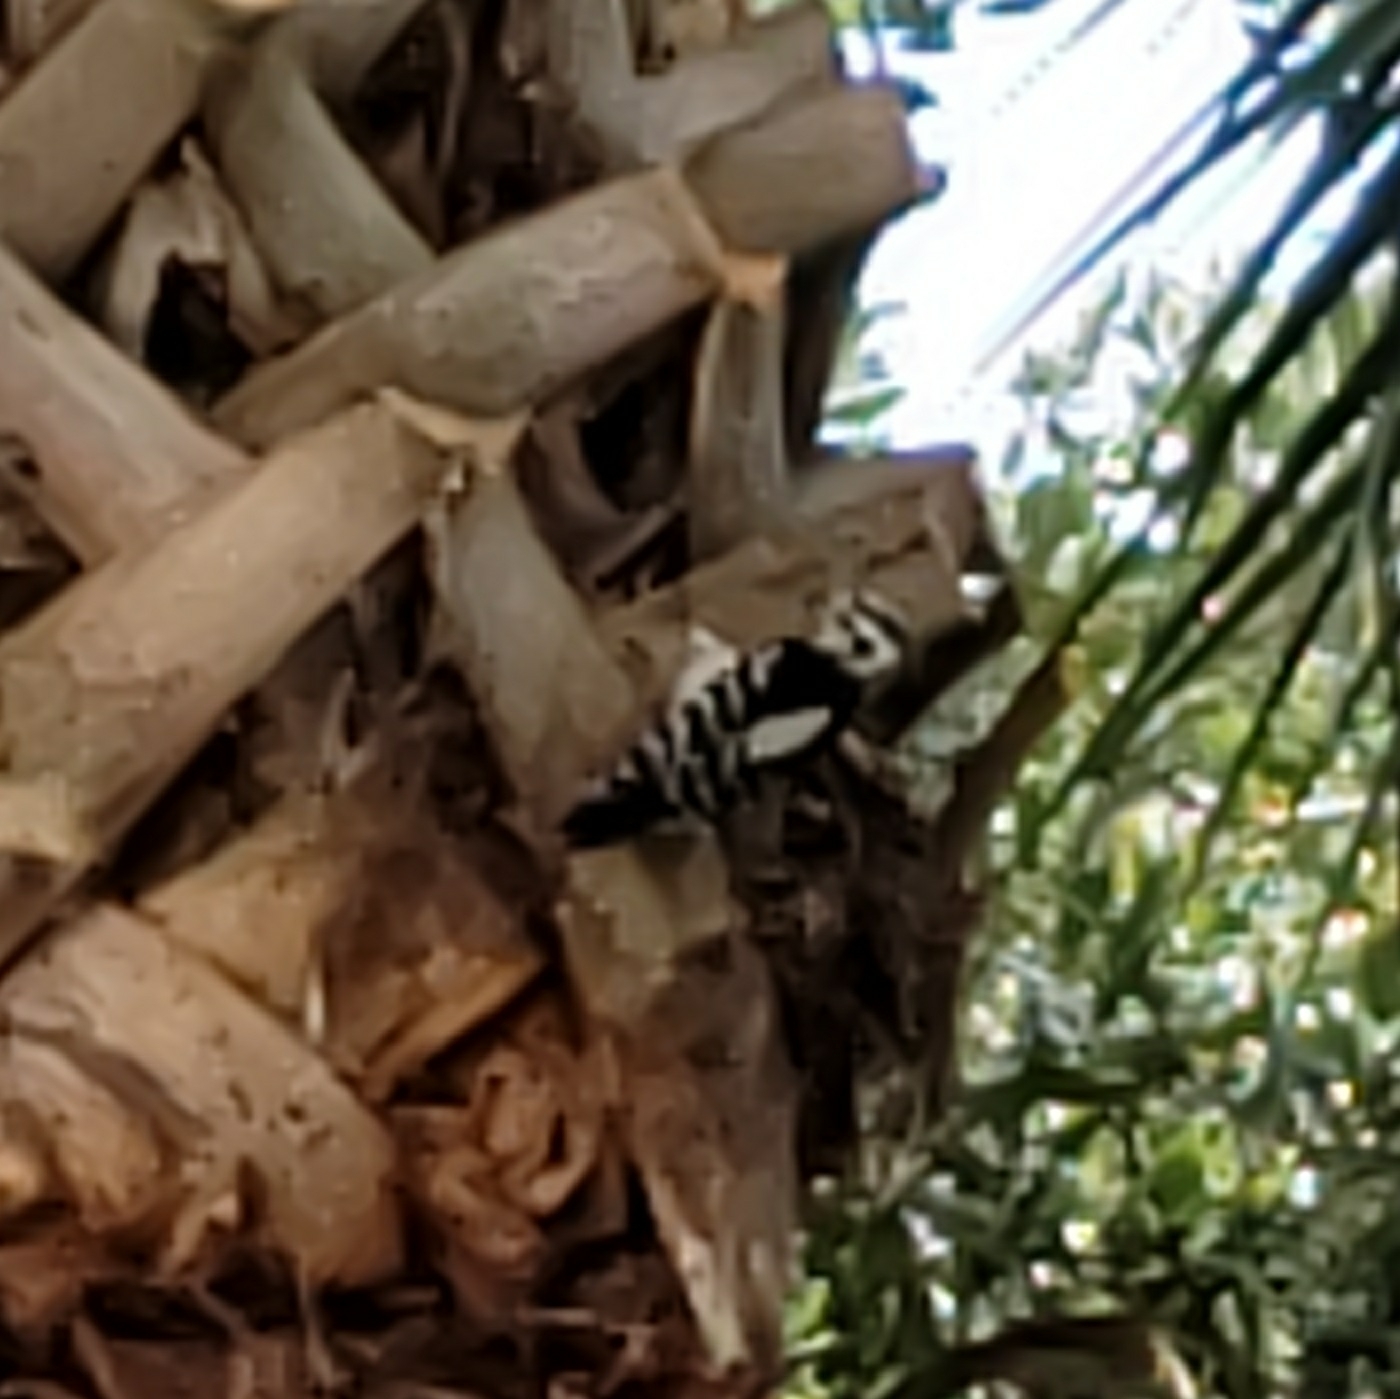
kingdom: Animalia
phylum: Chordata
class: Aves
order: Piciformes
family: Picidae
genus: Dryobates
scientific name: Dryobates pubescens
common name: Downy woodpecker
